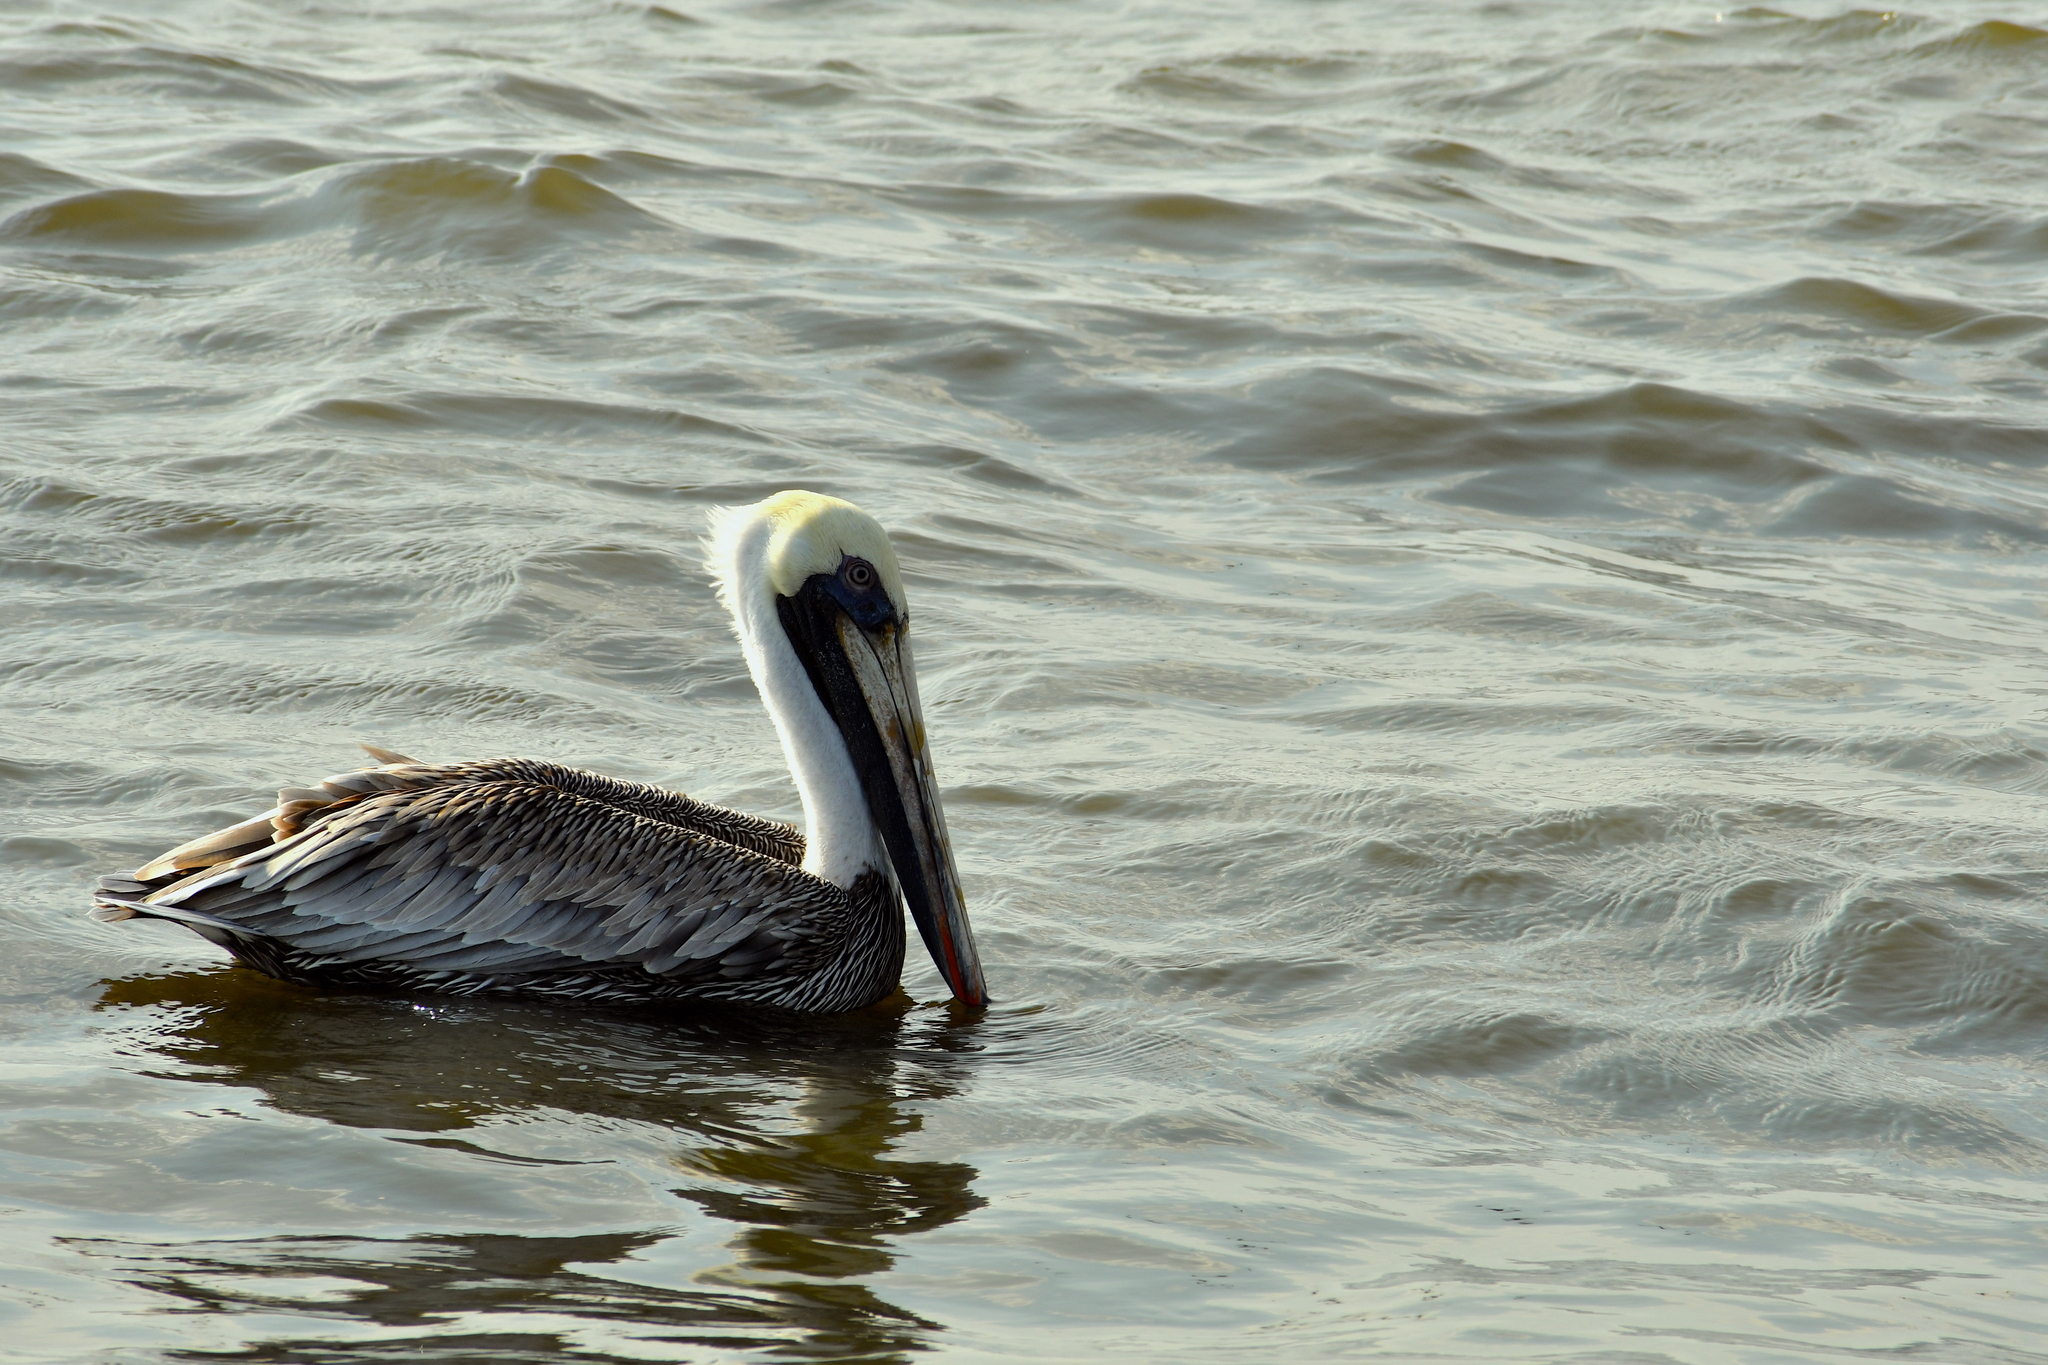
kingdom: Animalia
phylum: Chordata
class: Aves
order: Pelecaniformes
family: Pelecanidae
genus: Pelecanus
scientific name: Pelecanus occidentalis
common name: Brown pelican
